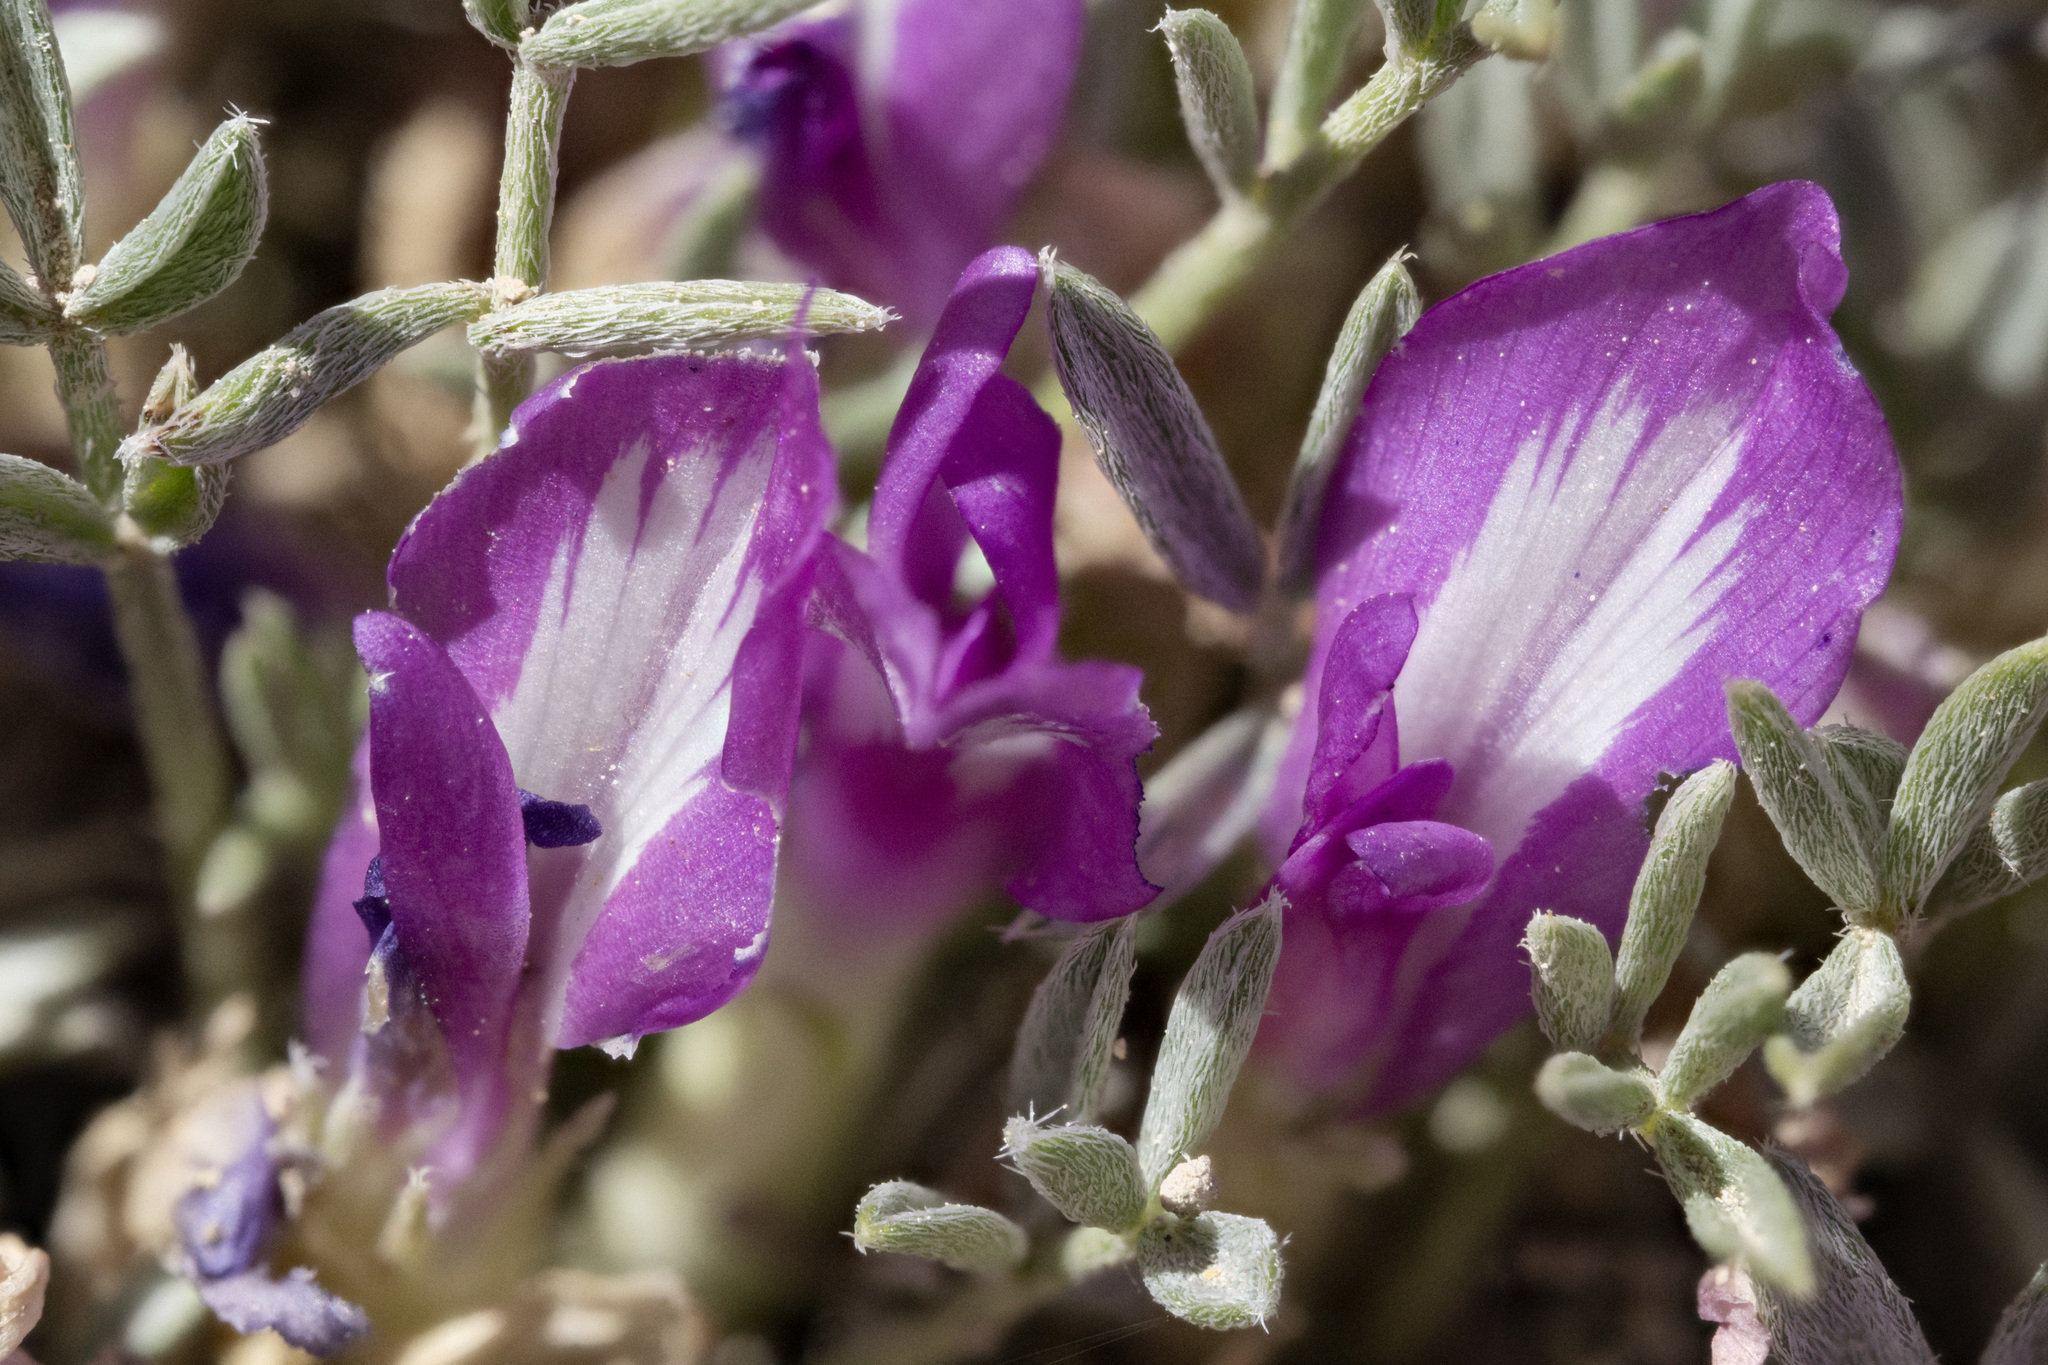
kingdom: Plantae
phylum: Tracheophyta
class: Magnoliopsida
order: Fabales
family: Fabaceae
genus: Astragalus
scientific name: Astragalus wittmannii
